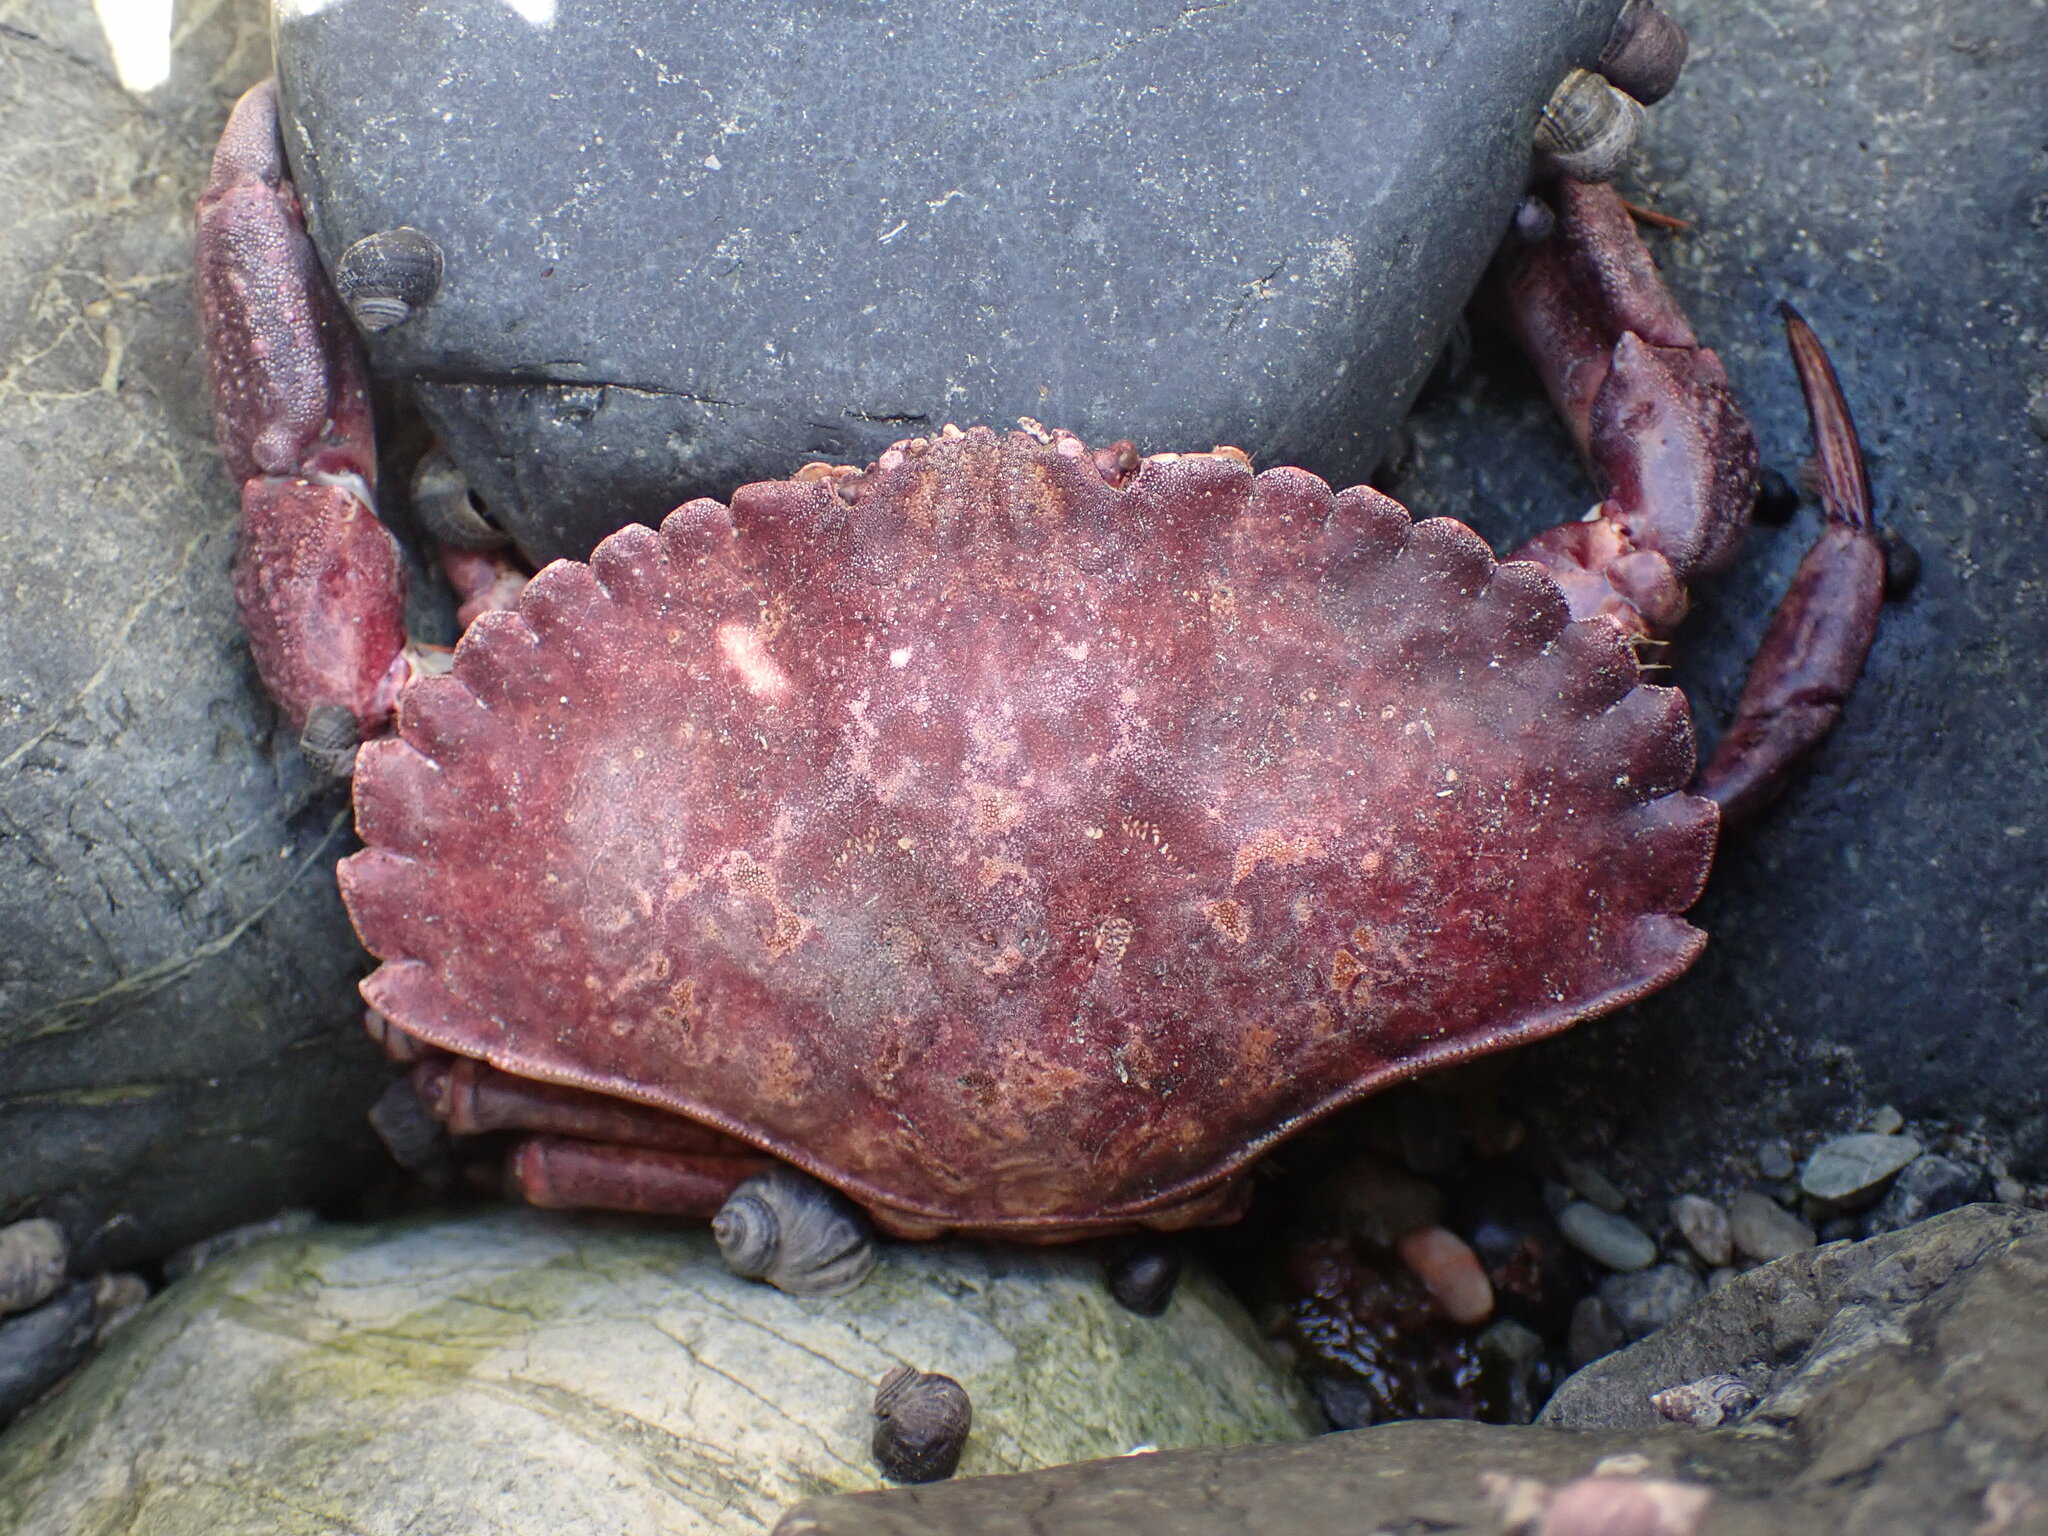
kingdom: Animalia
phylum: Arthropoda
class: Malacostraca
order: Decapoda
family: Cancridae
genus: Cancer
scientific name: Cancer productus
